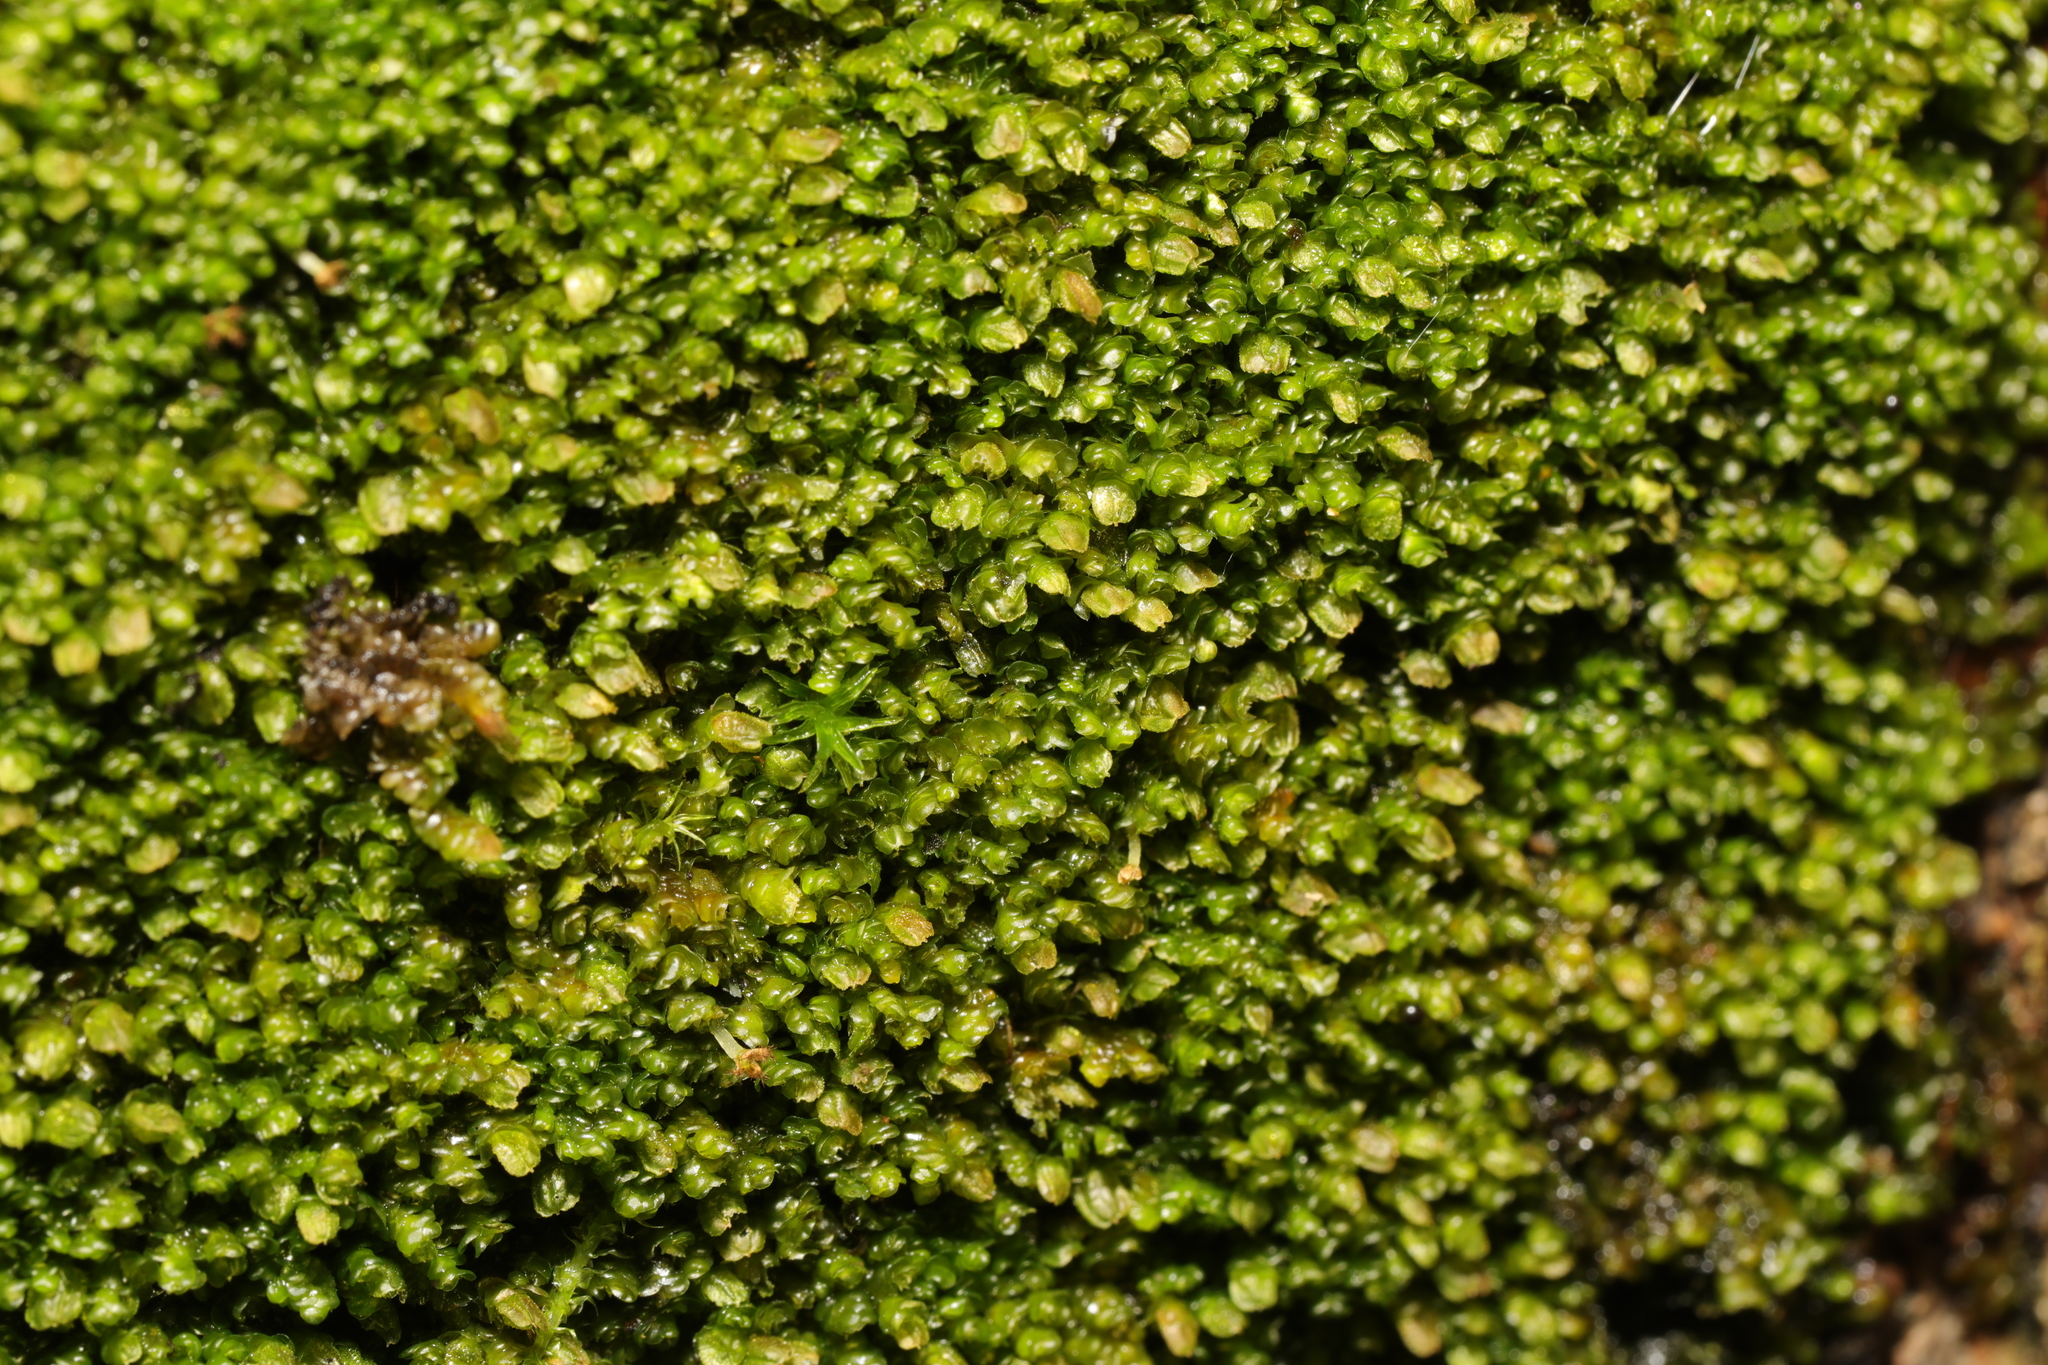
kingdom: Plantae
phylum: Marchantiophyta
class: Jungermanniopsida
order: Porellales
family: Frullaniaceae
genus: Frullania
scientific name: Frullania dilatata
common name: Dilated scalewort
